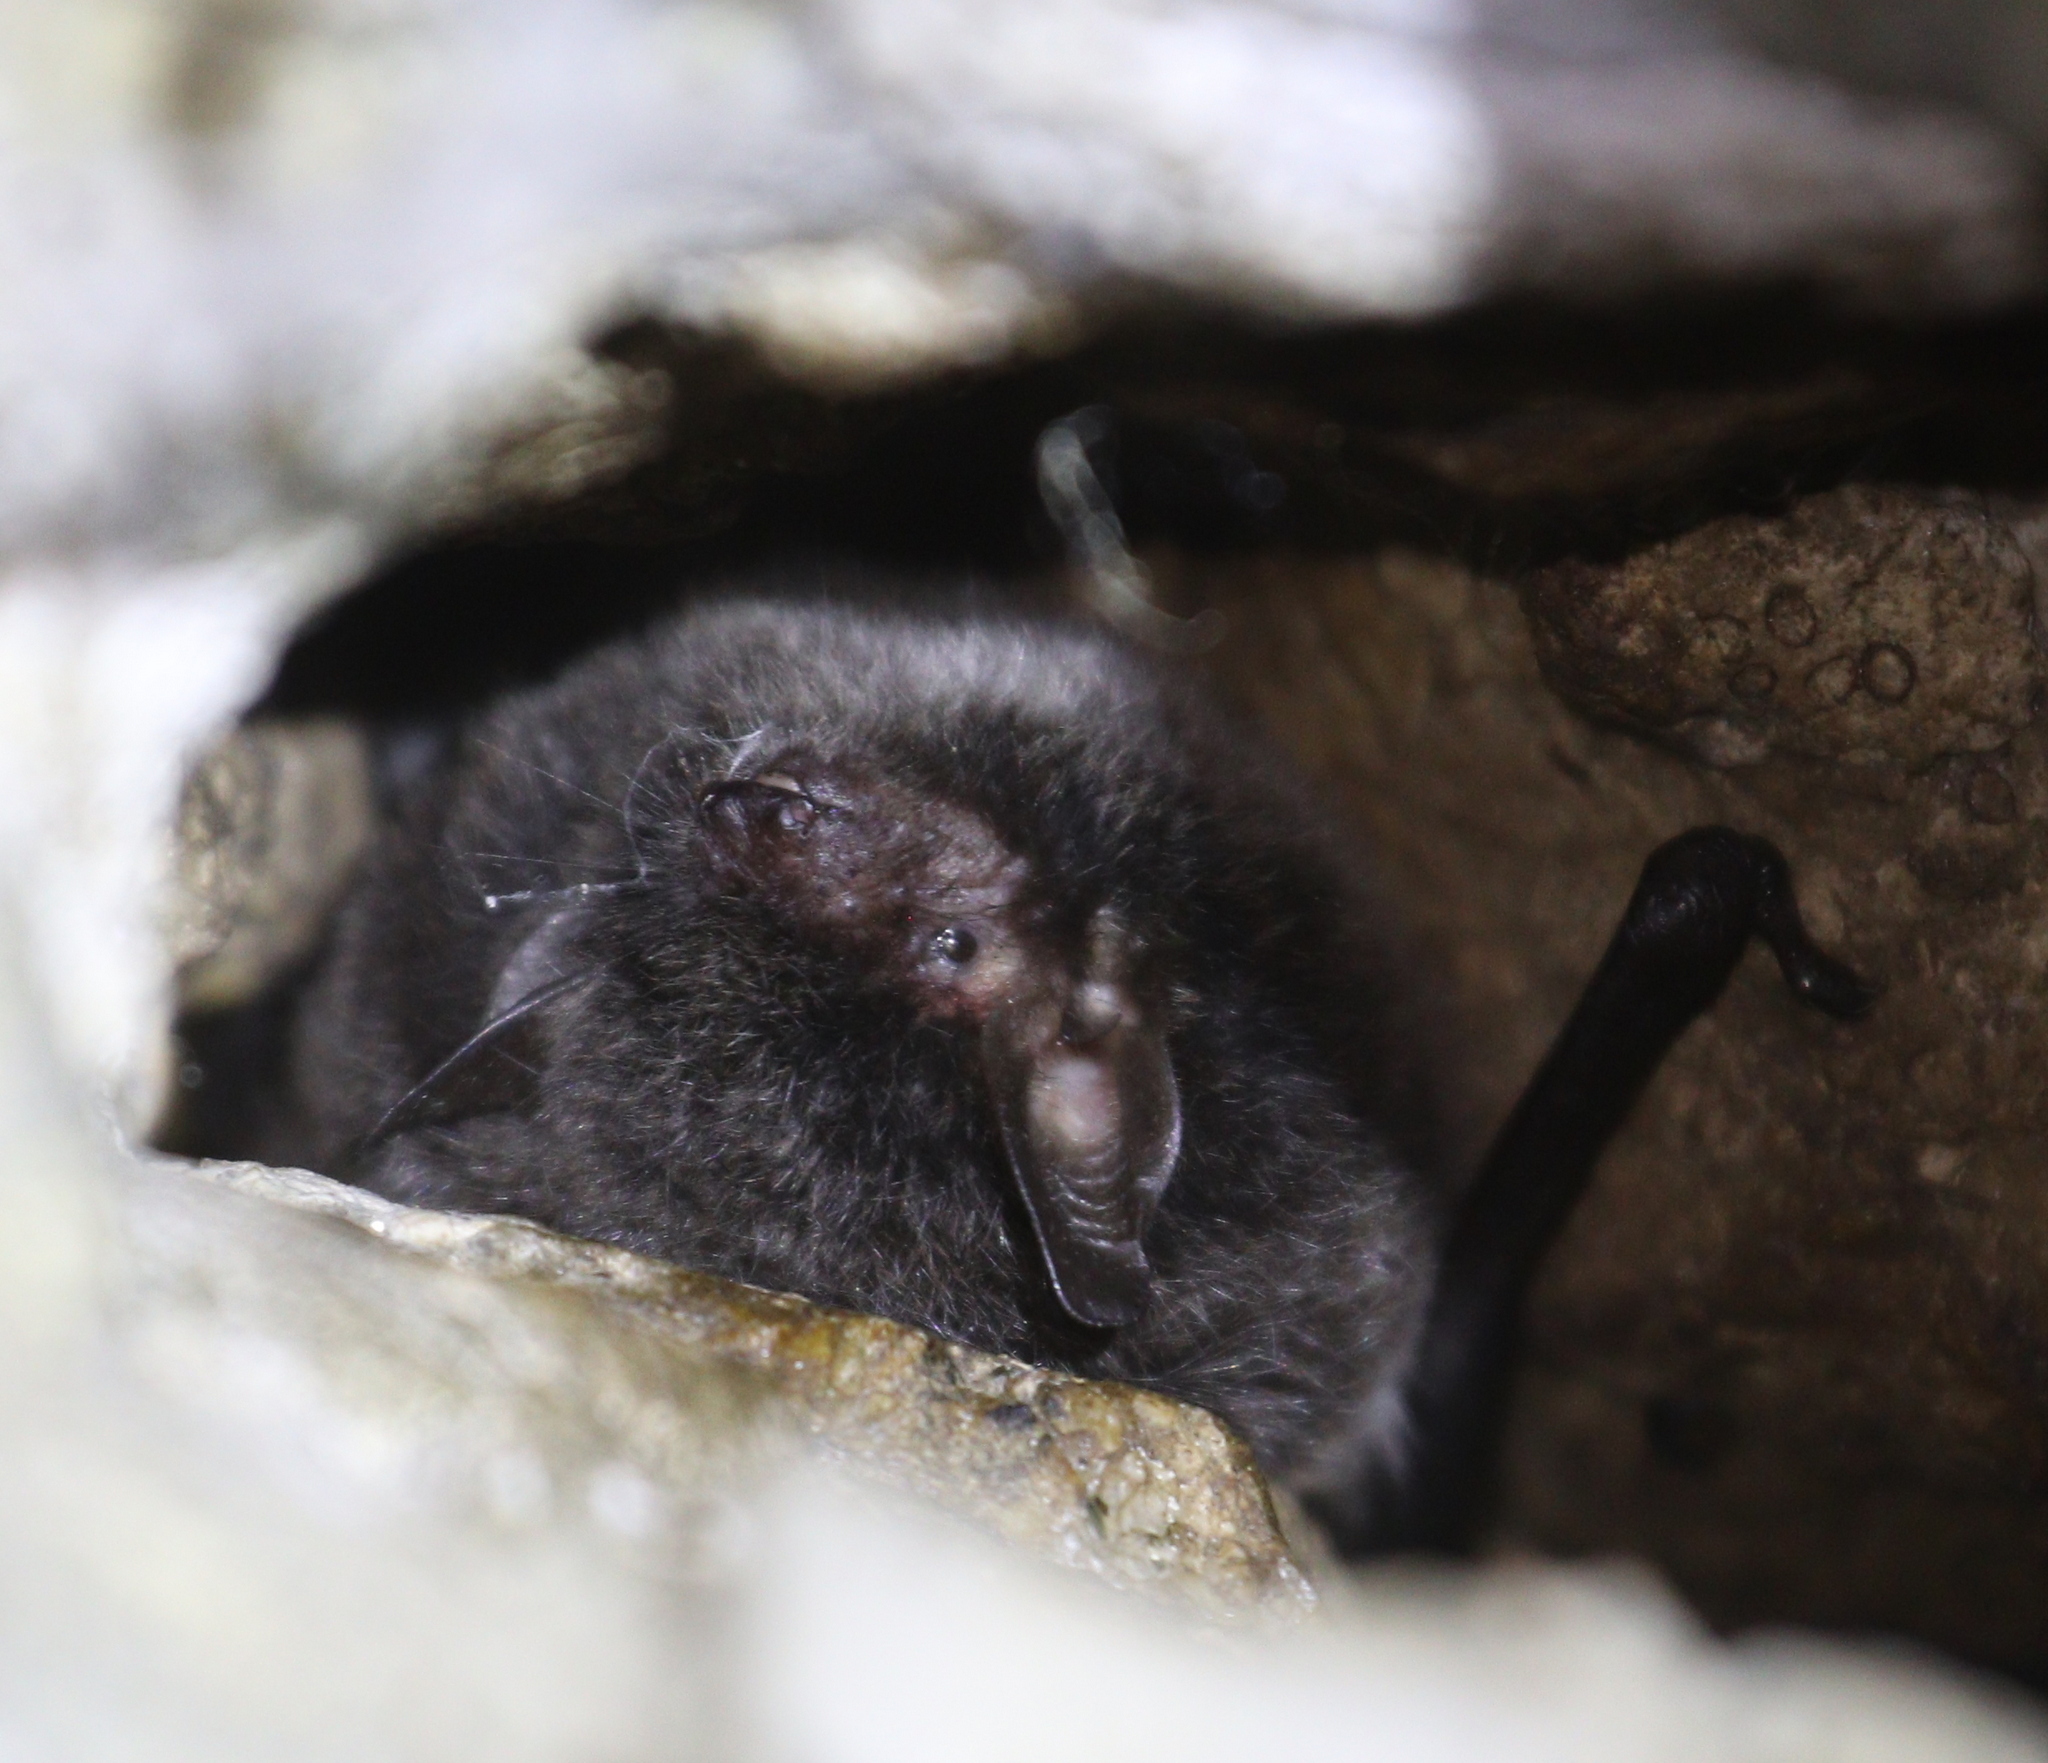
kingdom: Animalia
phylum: Chordata
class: Mammalia
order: Chiroptera
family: Vespertilionidae
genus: Myotis
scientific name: Myotis daubentonii
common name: Daubenton's myotis
